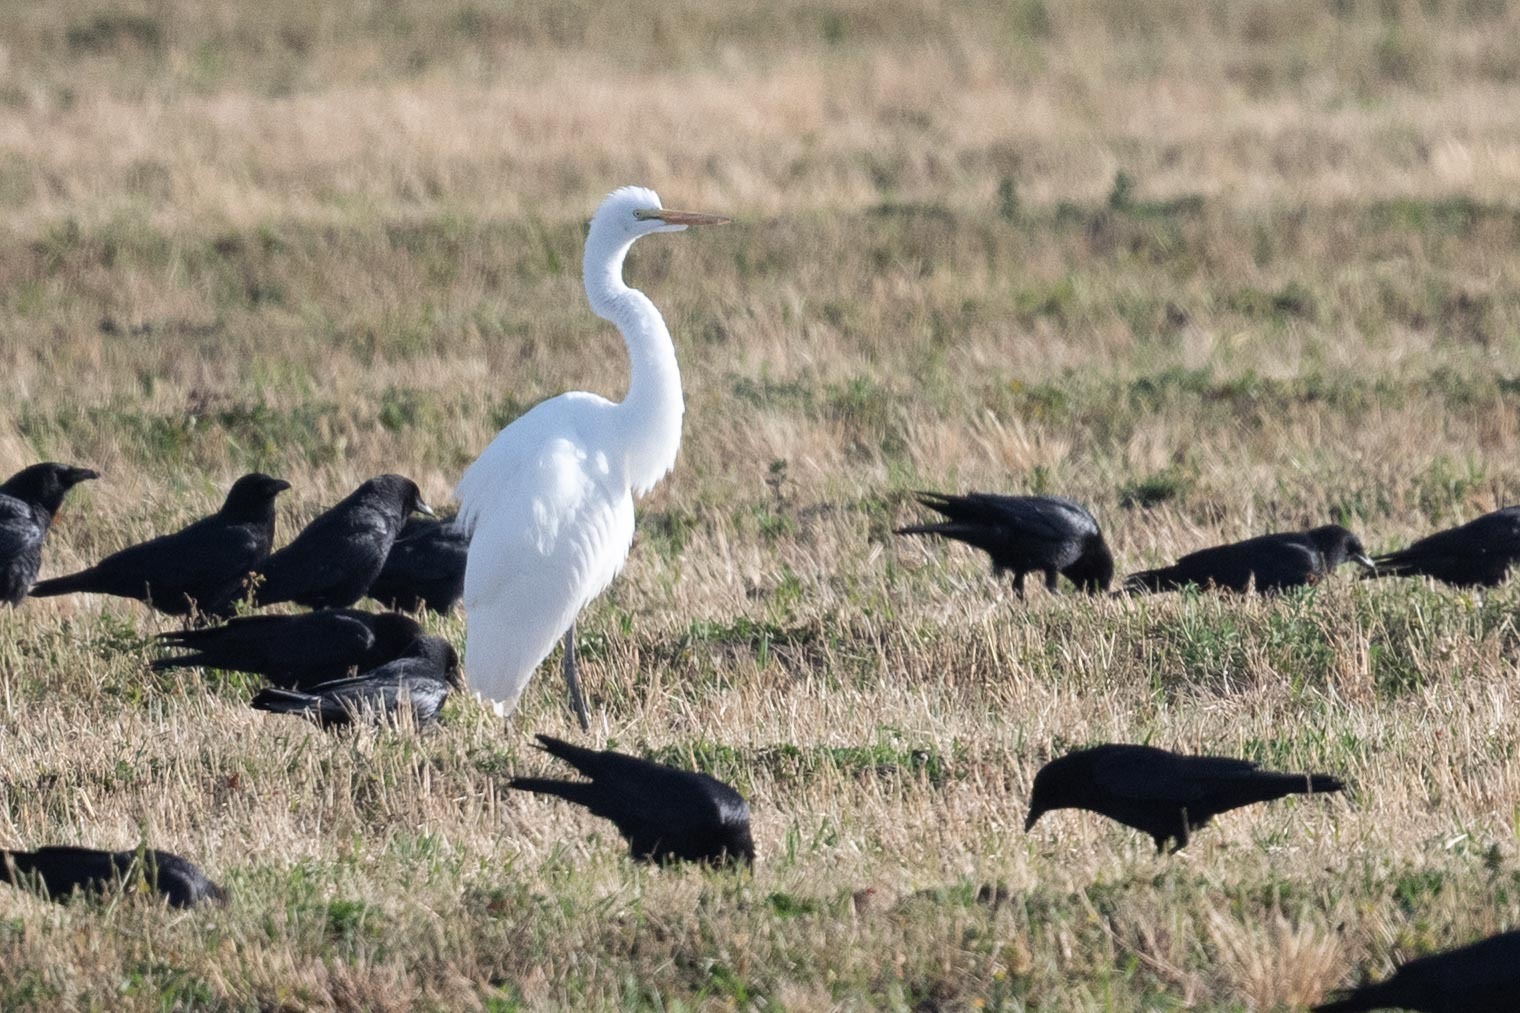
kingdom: Animalia
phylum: Chordata
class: Aves
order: Pelecaniformes
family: Ardeidae
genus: Ardea
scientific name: Ardea alba
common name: Great egret
